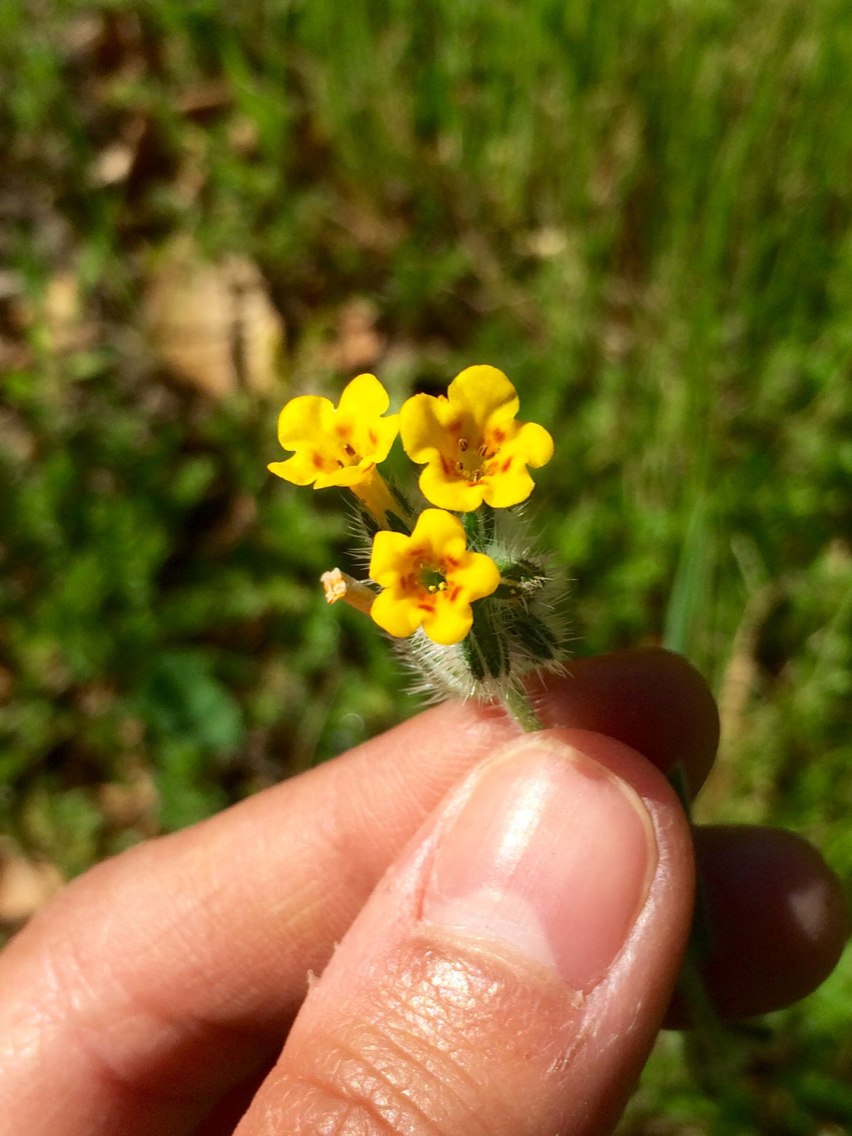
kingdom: Plantae
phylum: Tracheophyta
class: Magnoliopsida
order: Boraginales
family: Boraginaceae
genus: Amsinckia
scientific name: Amsinckia menziesii
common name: Menzies' fiddleneck
